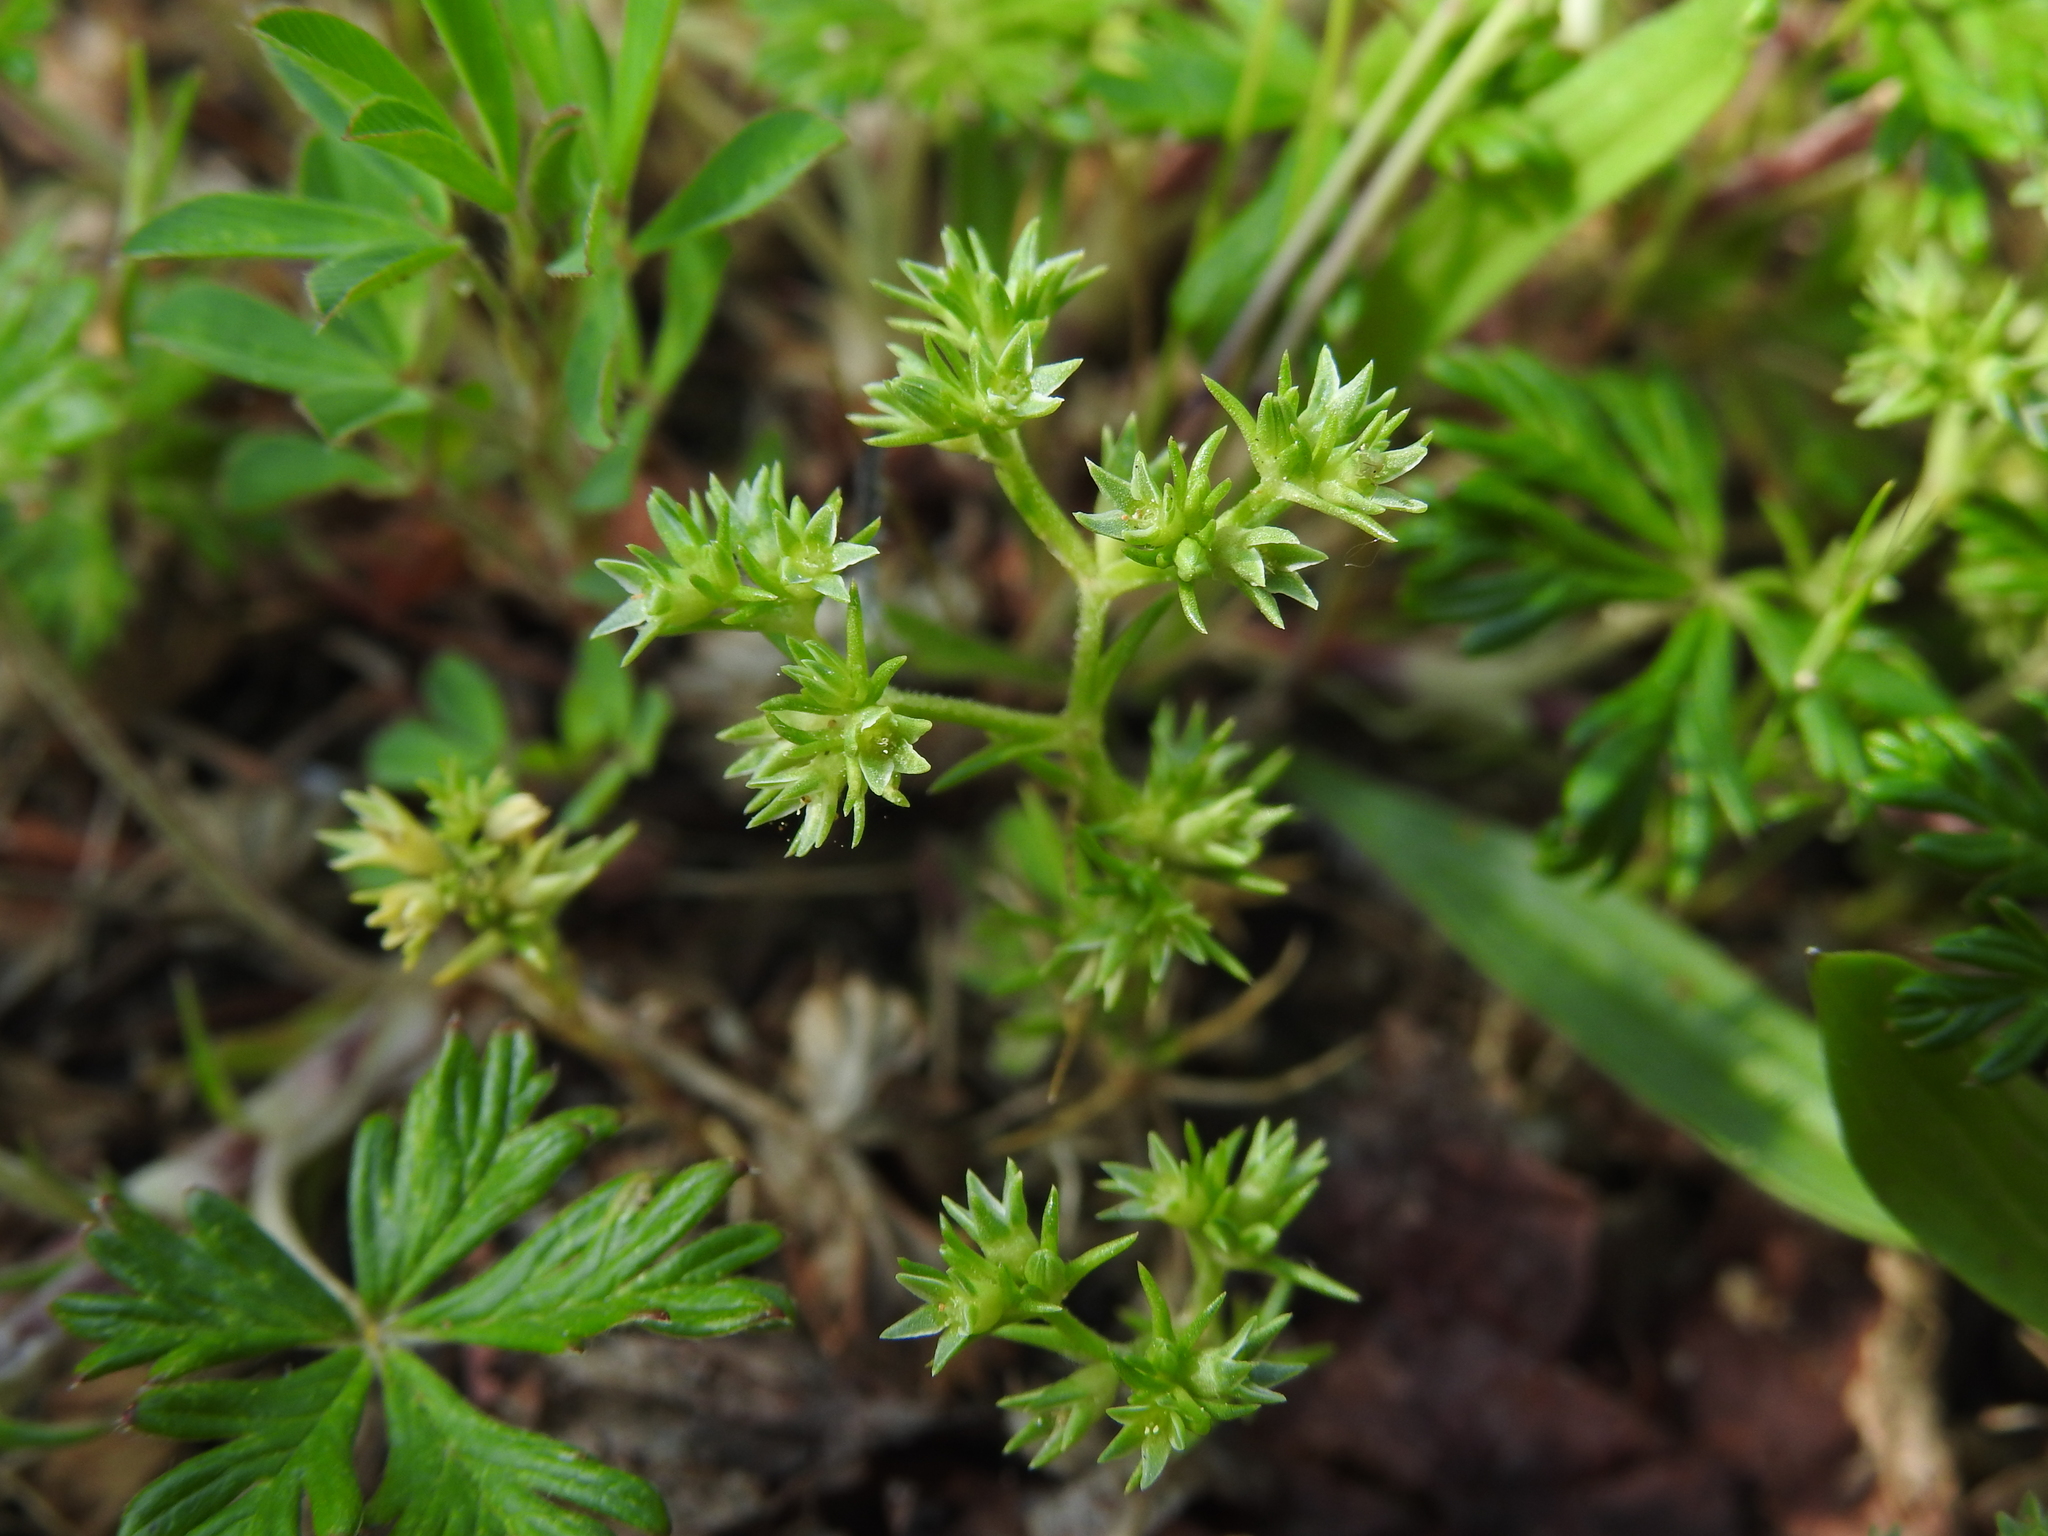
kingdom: Plantae
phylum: Tracheophyta
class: Magnoliopsida
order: Caryophyllales
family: Caryophyllaceae
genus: Scleranthus
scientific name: Scleranthus annuus
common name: Annual knawel
